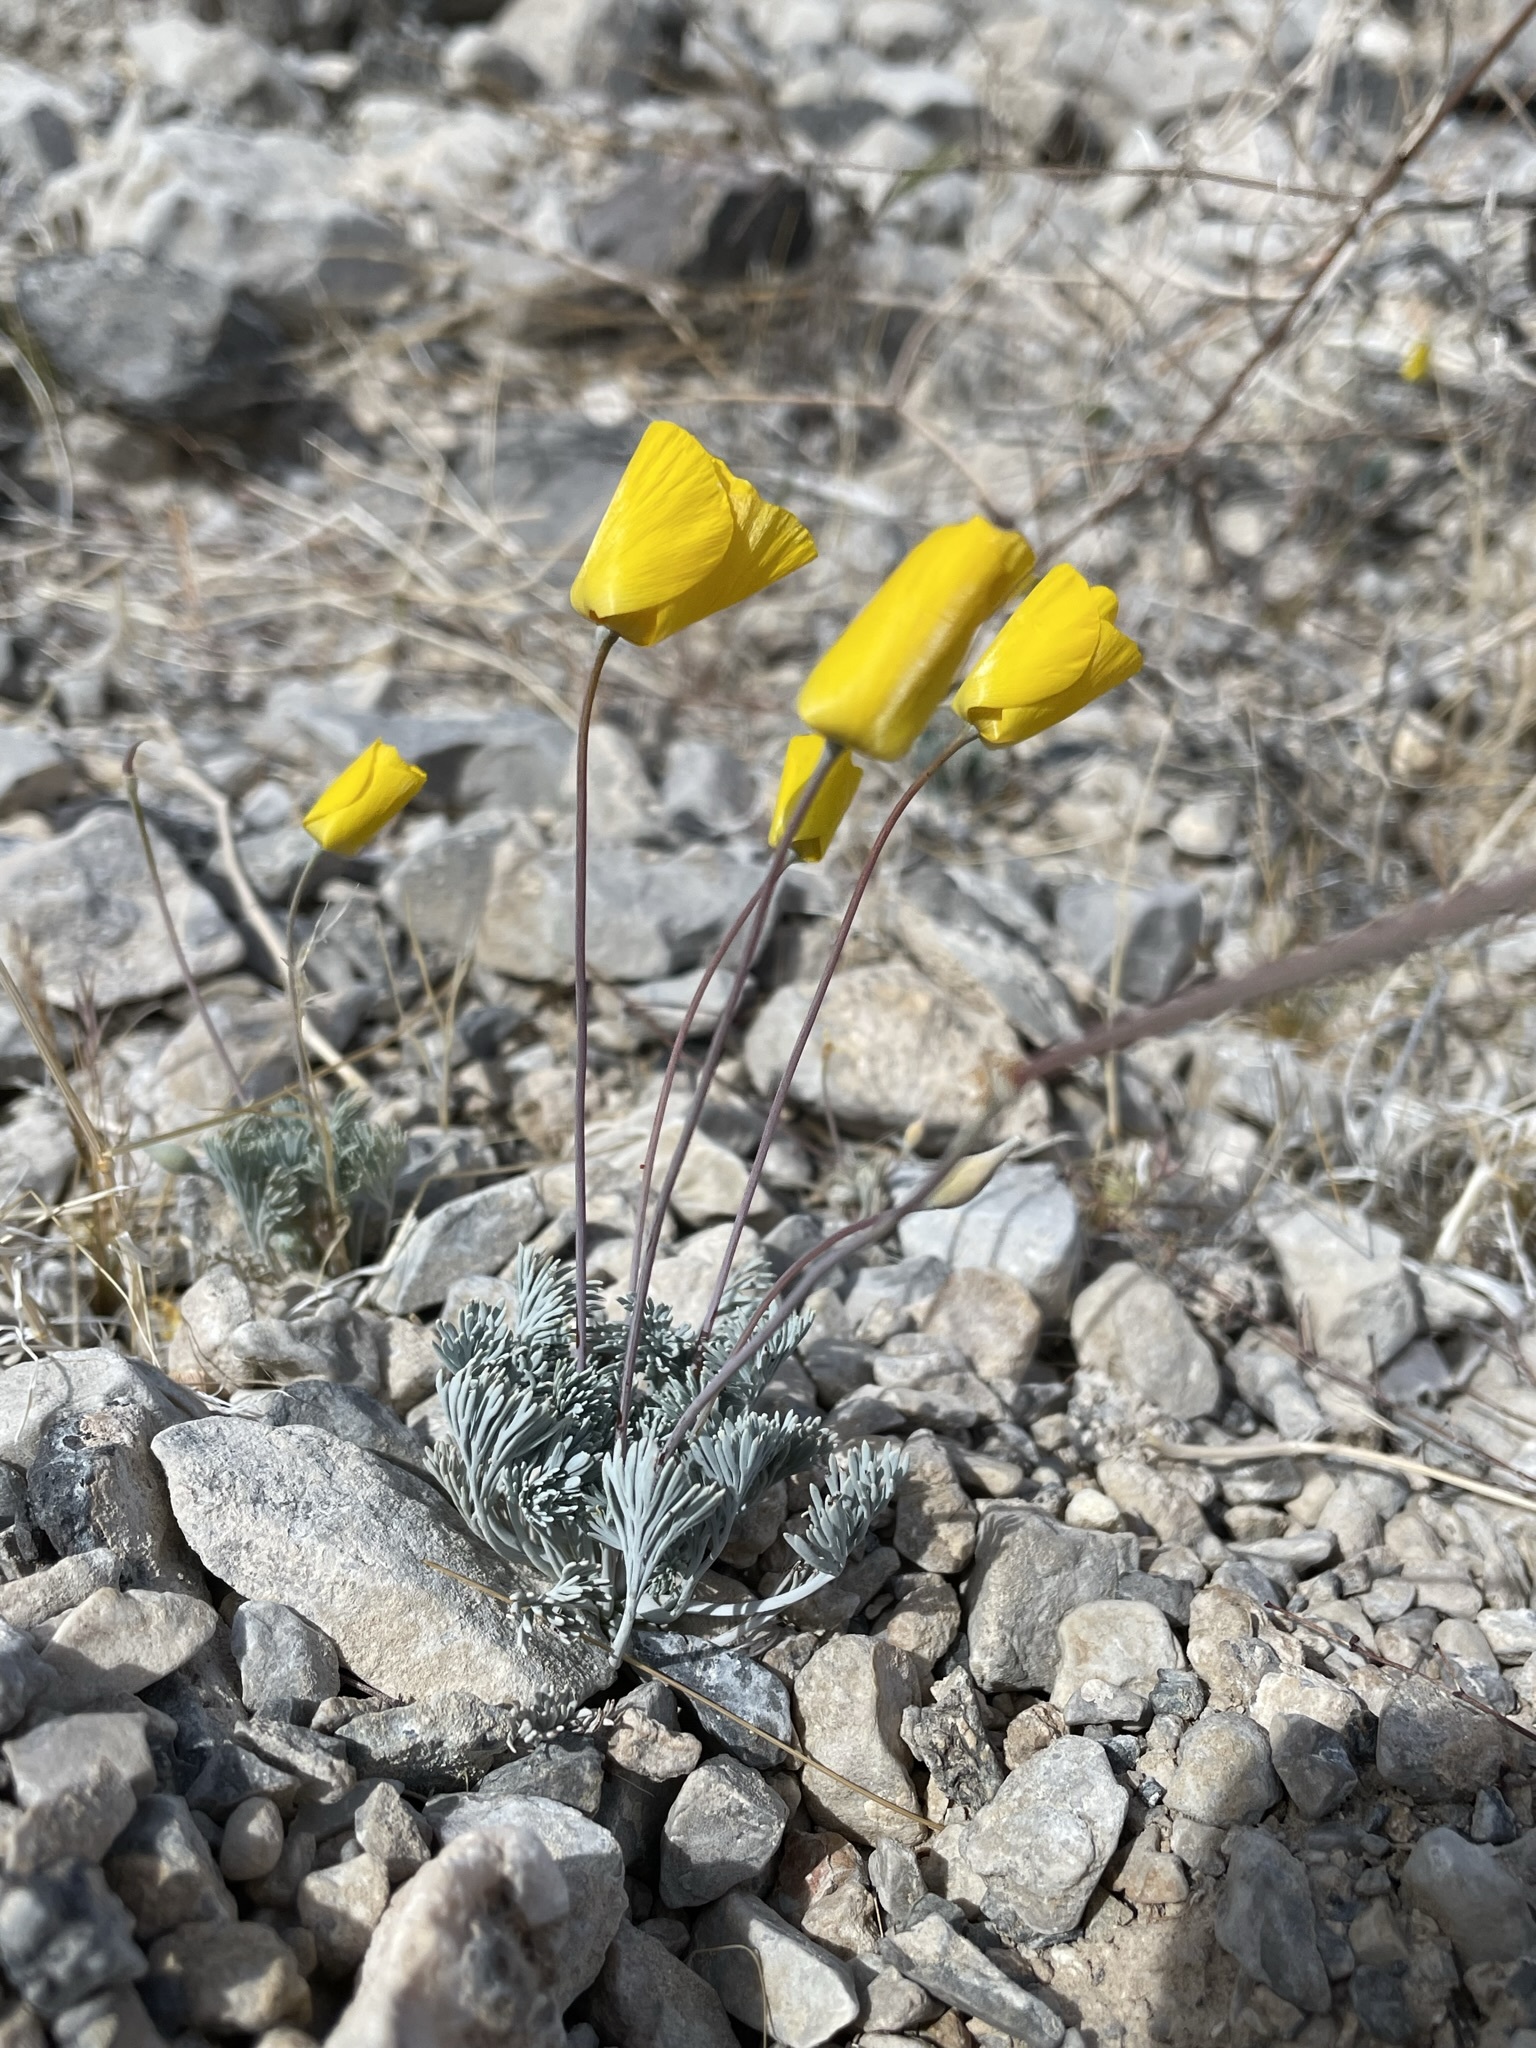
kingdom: Plantae
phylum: Tracheophyta
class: Magnoliopsida
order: Ranunculales
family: Papaveraceae
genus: Eschscholzia
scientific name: Eschscholzia glyptosperma
